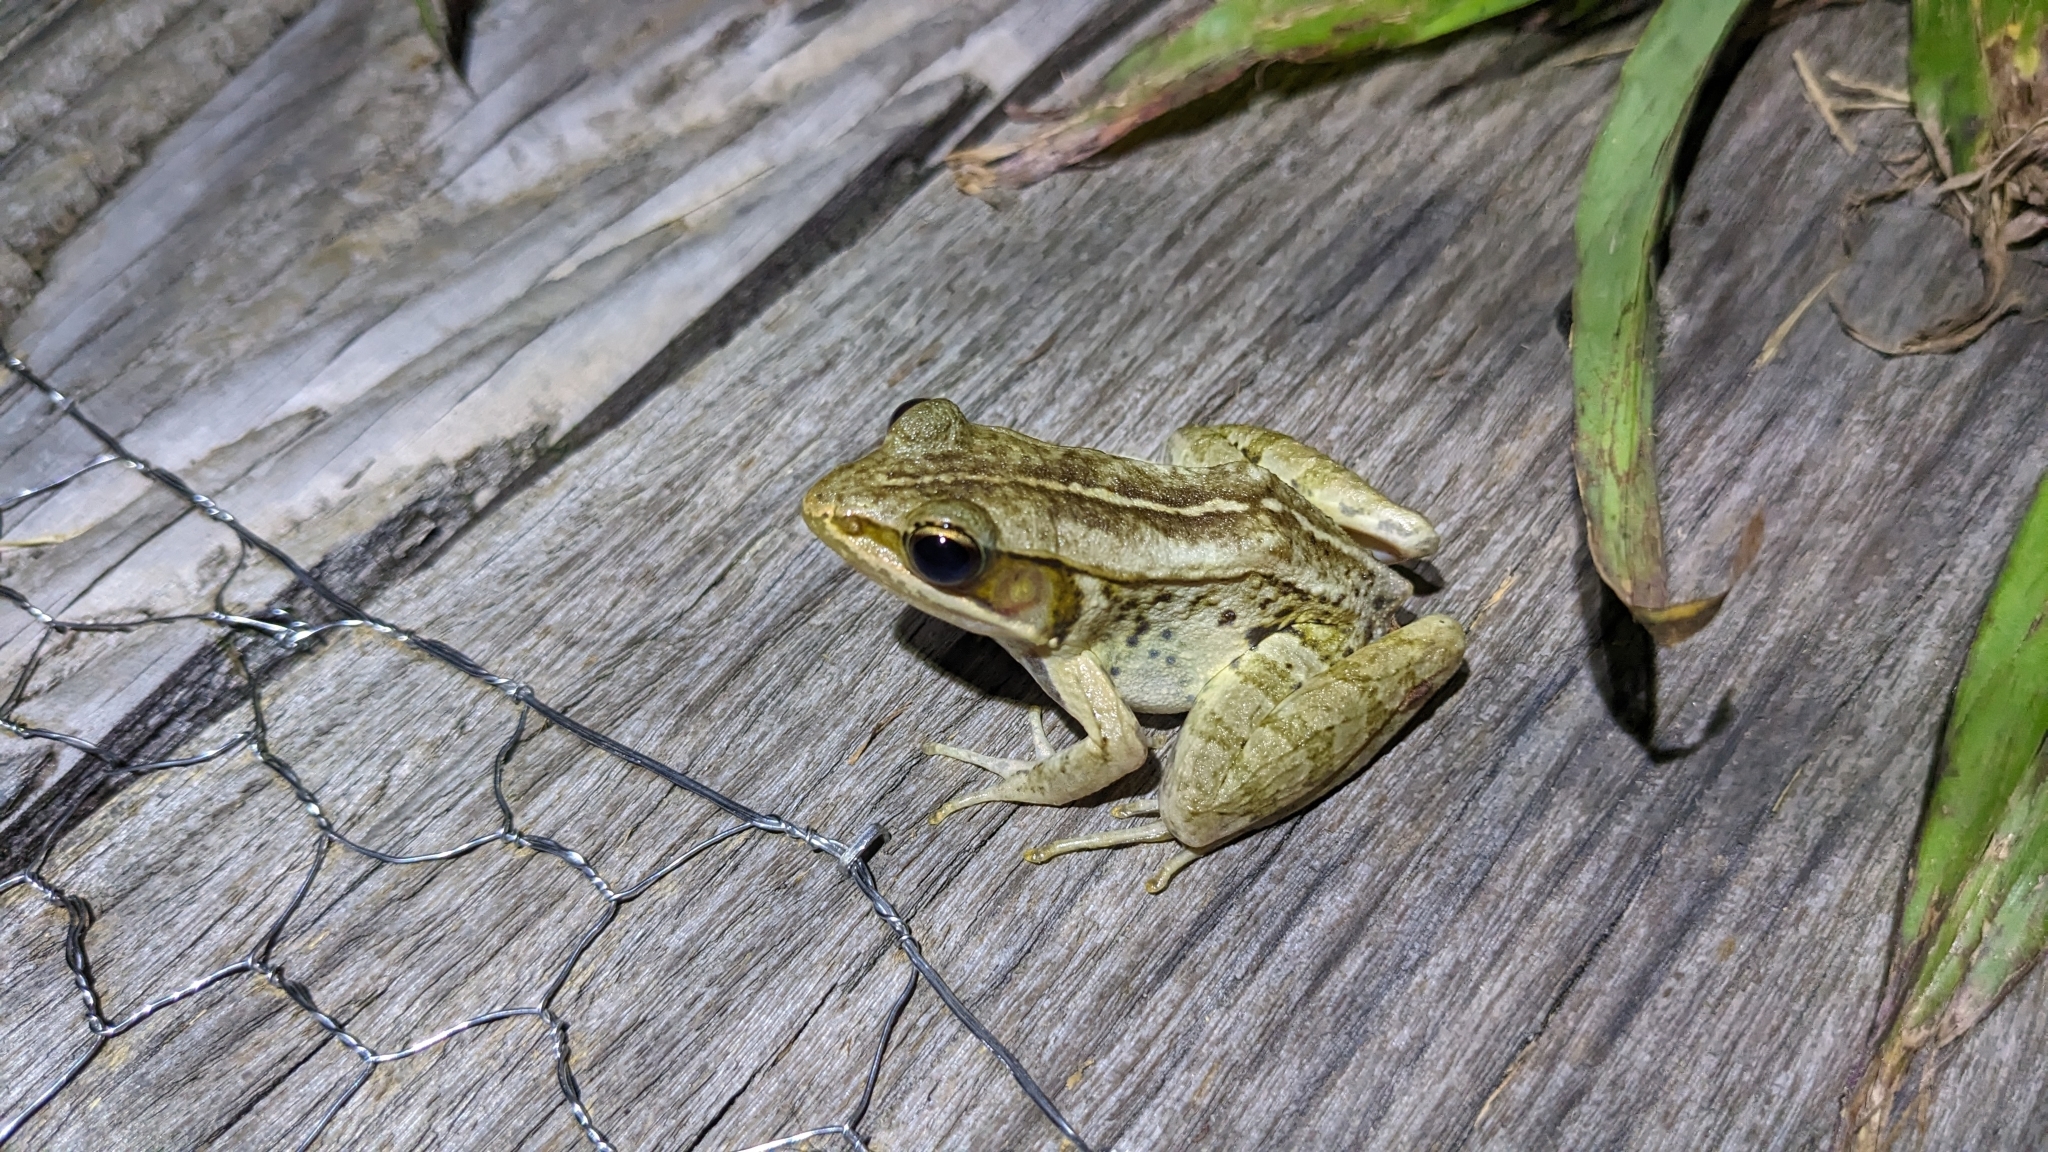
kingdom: Animalia
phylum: Chordata
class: Amphibia
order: Anura
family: Ranidae
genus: Nidirana
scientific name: Nidirana adenopleura
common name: Olive frog
